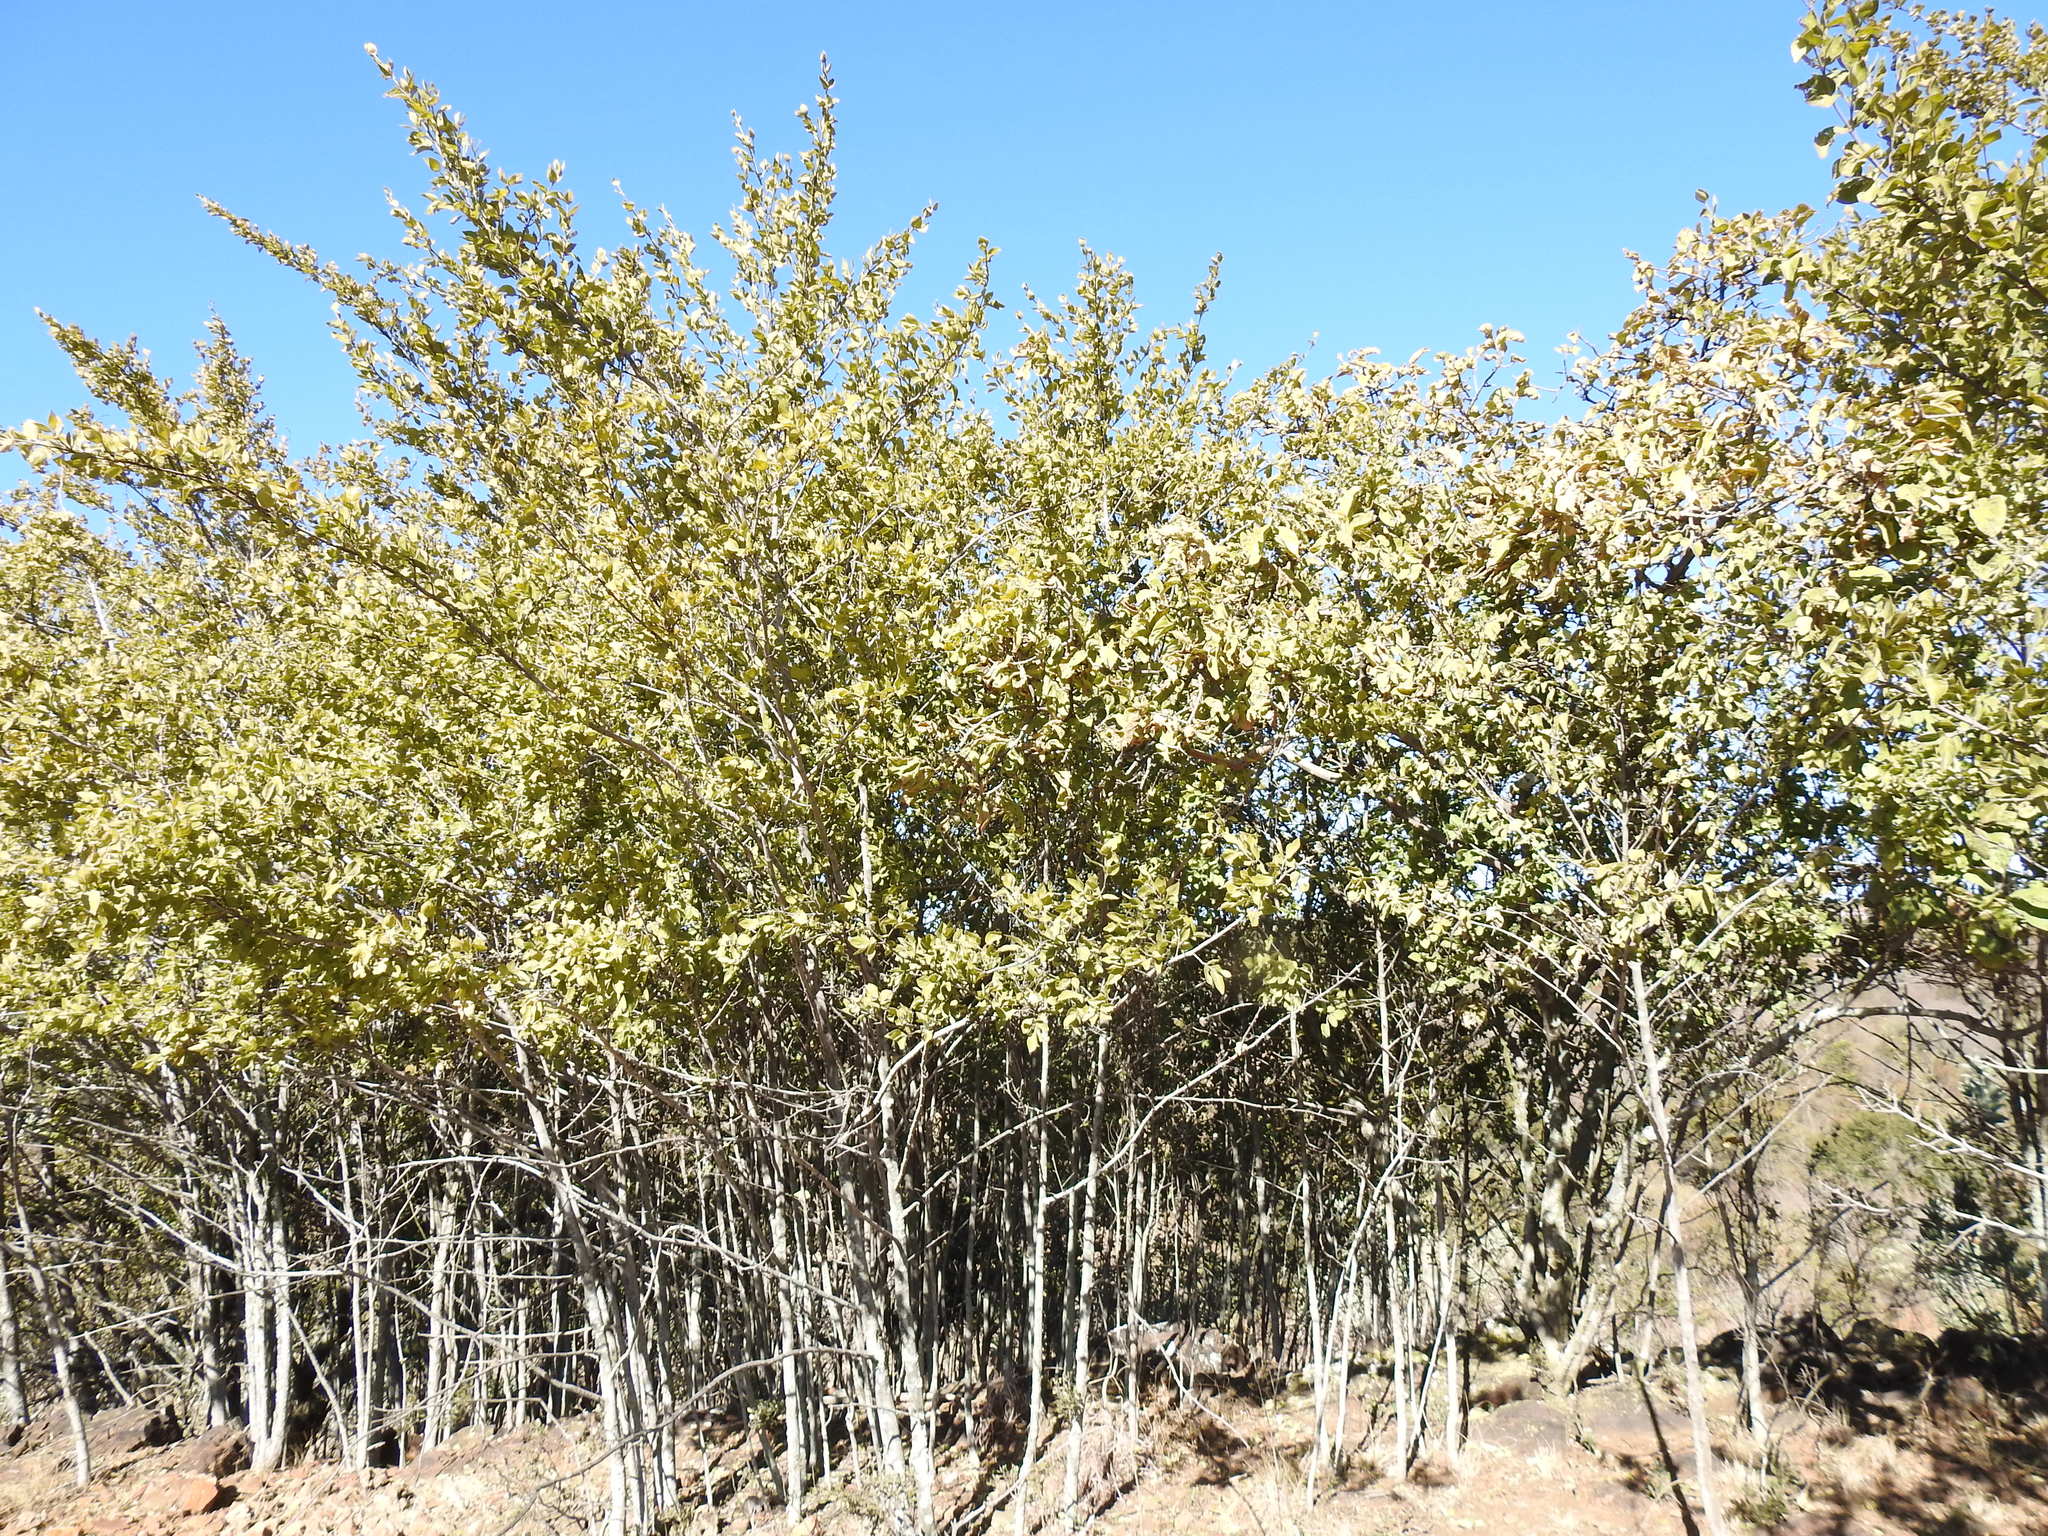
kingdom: Plantae
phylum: Tracheophyta
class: Magnoliopsida
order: Gentianales
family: Rubiaceae
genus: Afrocanthium
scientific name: Afrocanthium gilfillanii
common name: Velvet rock-alder
